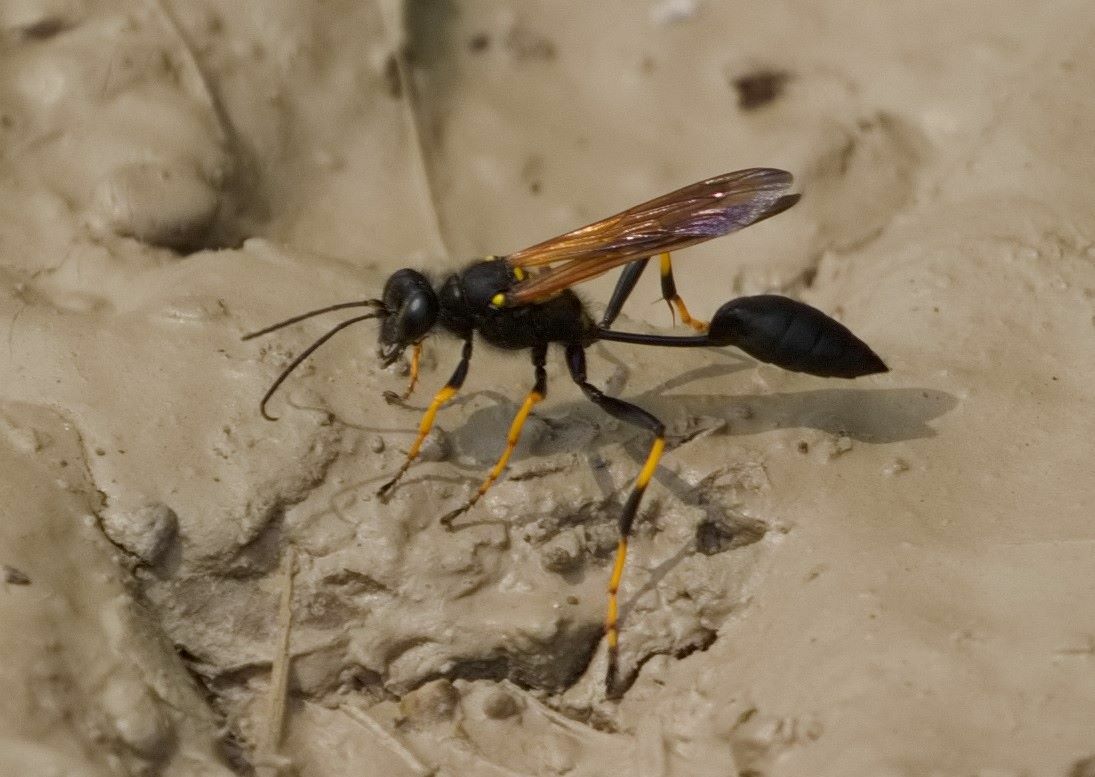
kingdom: Animalia
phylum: Arthropoda
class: Insecta
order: Hymenoptera
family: Sphecidae
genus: Sceliphron
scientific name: Sceliphron caementarium
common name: Mud dauber
